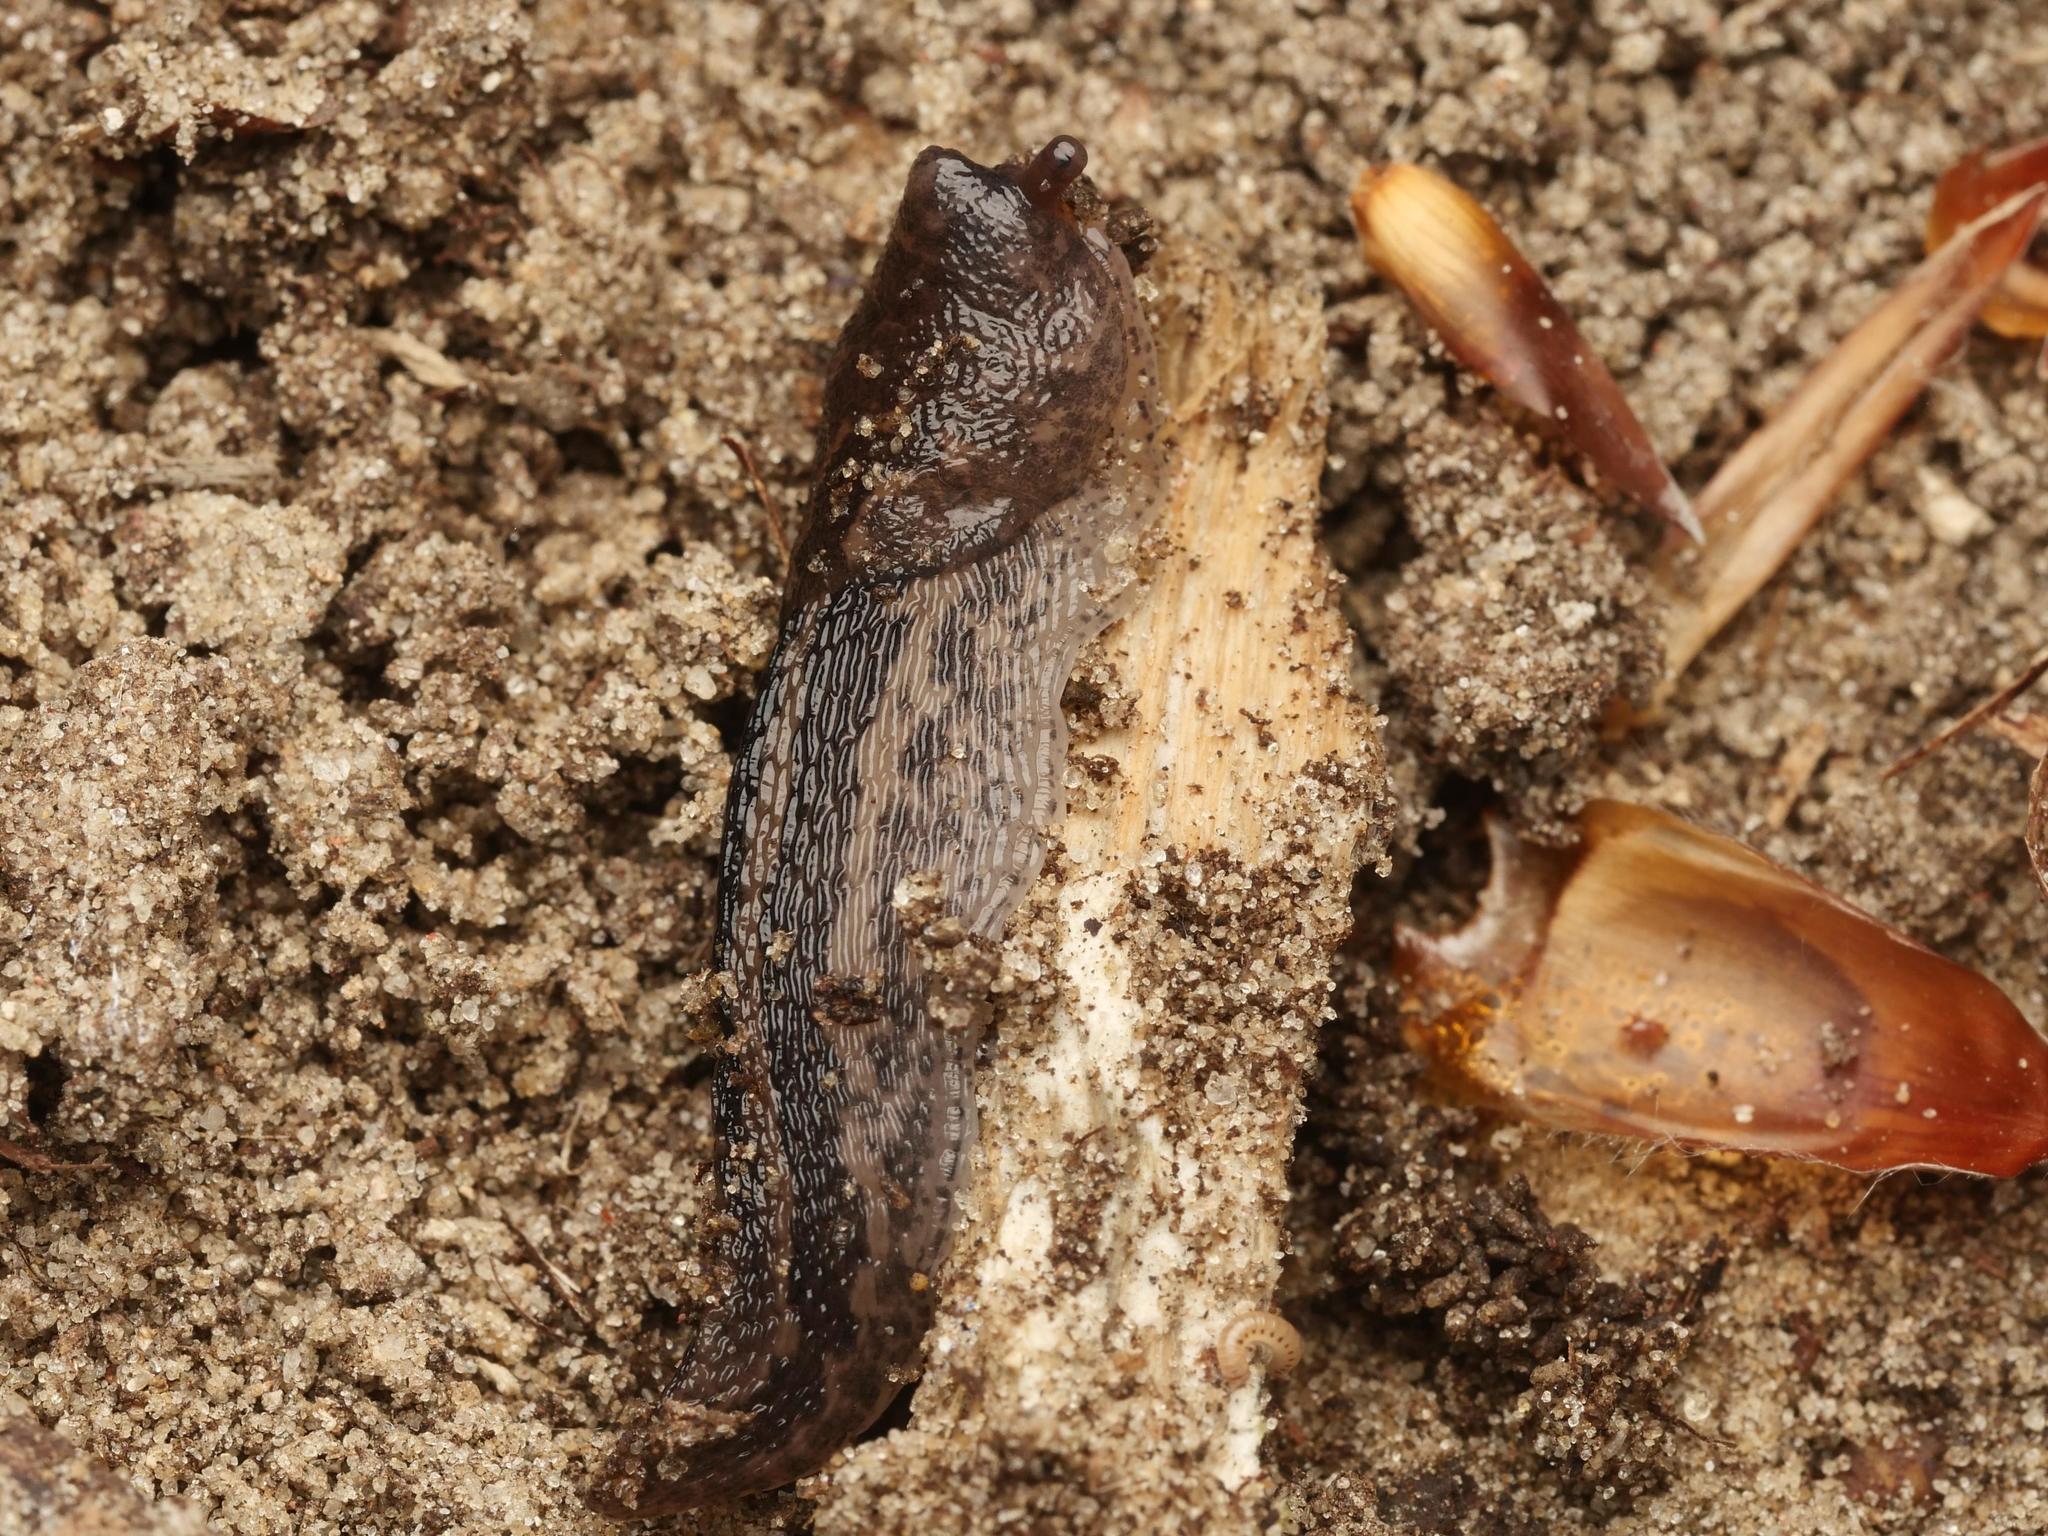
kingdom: Animalia
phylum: Mollusca
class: Gastropoda
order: Stylommatophora
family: Limacidae
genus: Limax
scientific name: Limax maximus
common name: Great grey slug
